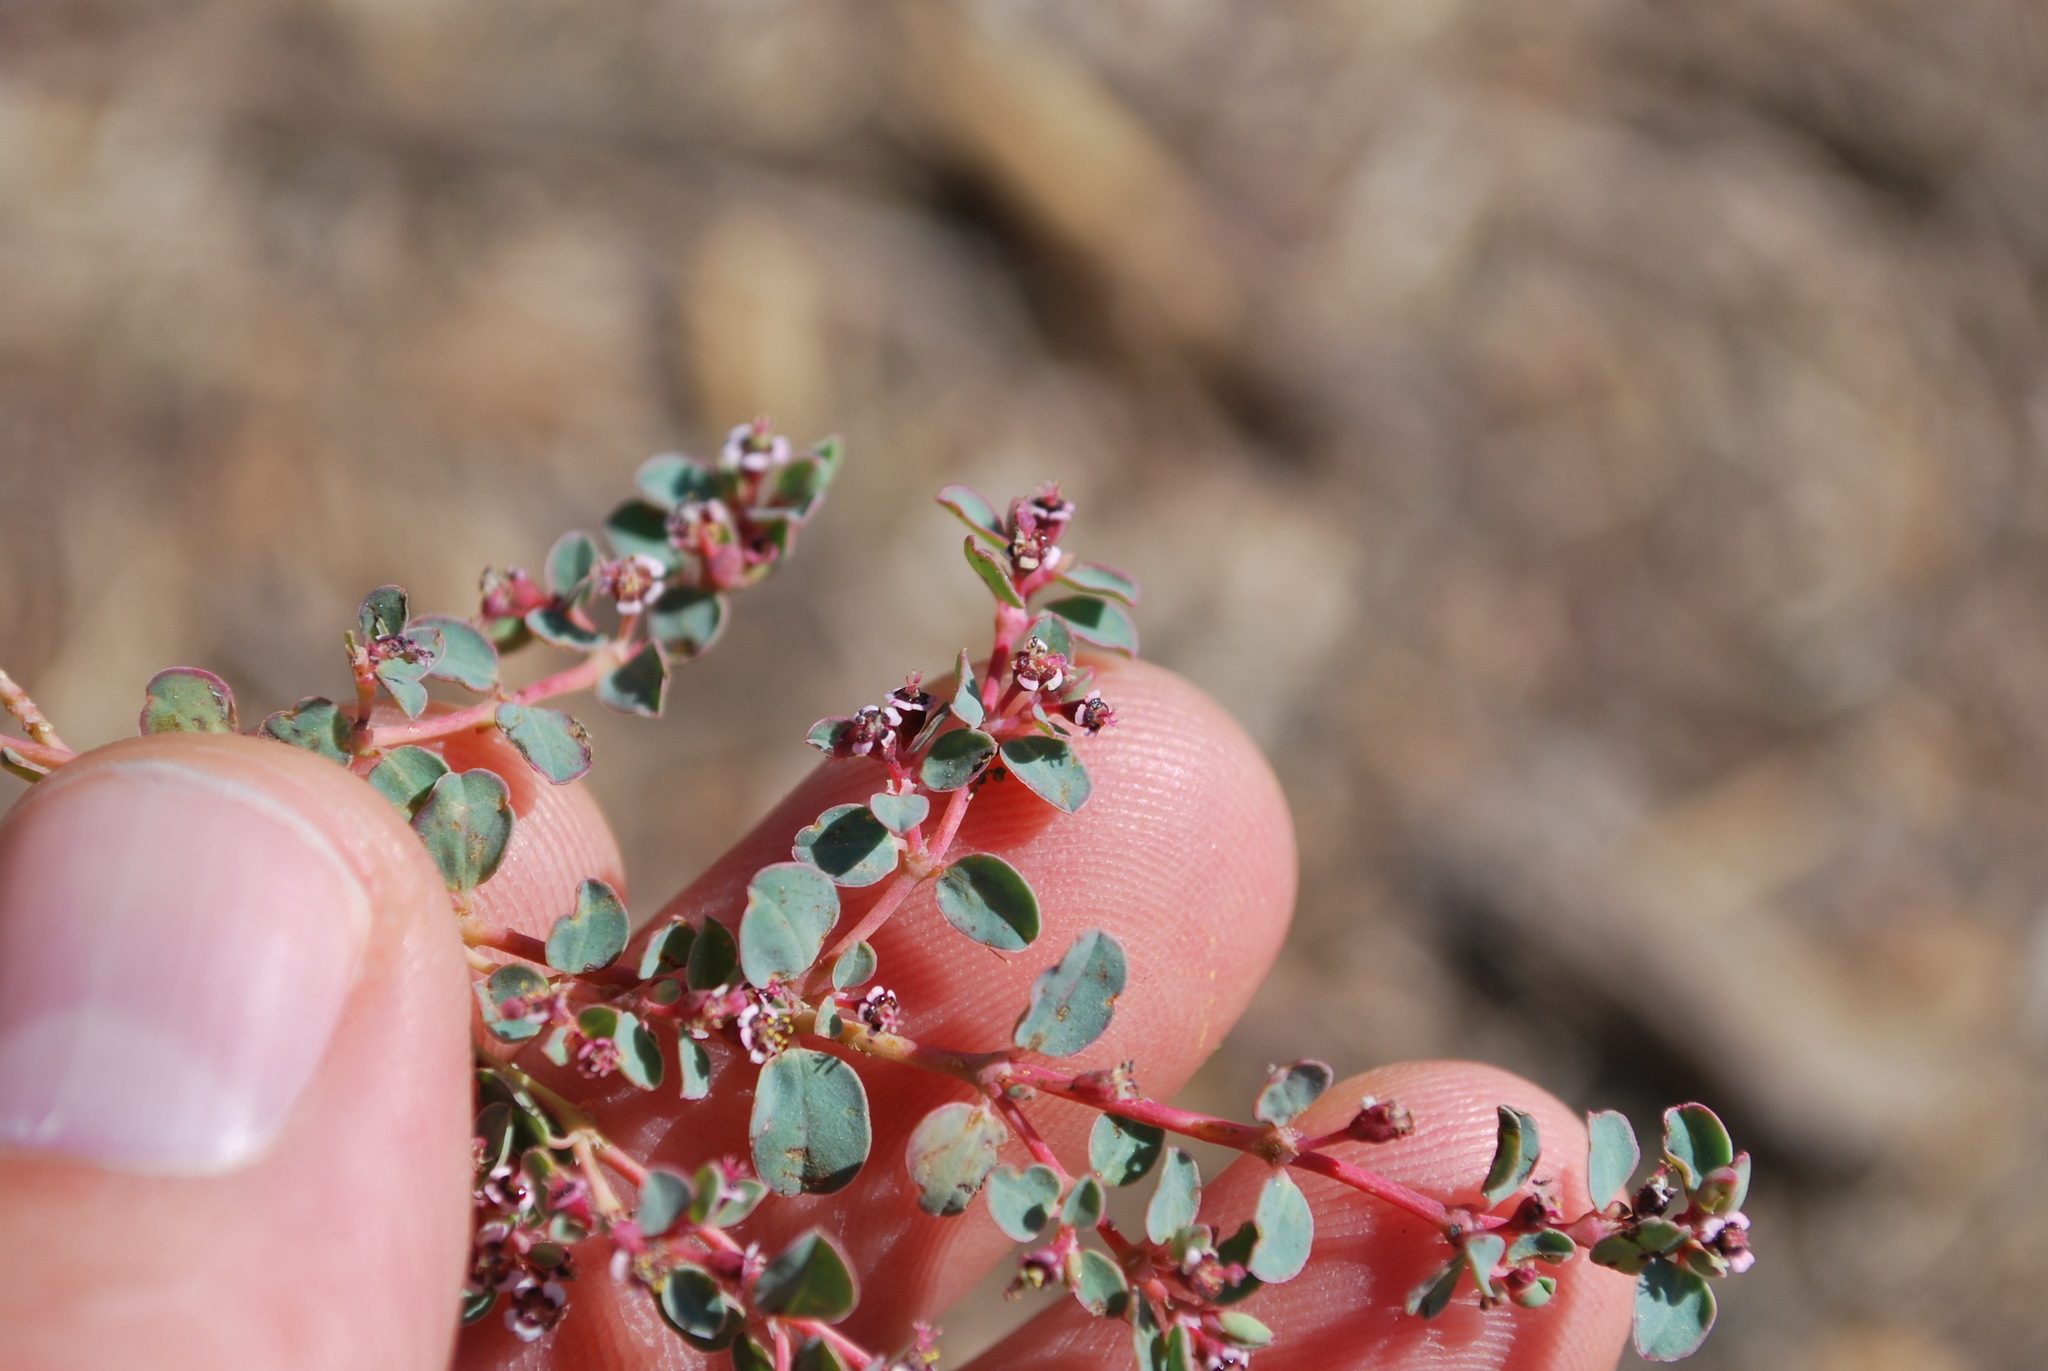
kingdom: Plantae
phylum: Tracheophyta
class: Magnoliopsida
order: Malpighiales
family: Euphorbiaceae
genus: Euphorbia
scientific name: Euphorbia albomarginata
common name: Whitemargin sandmat
